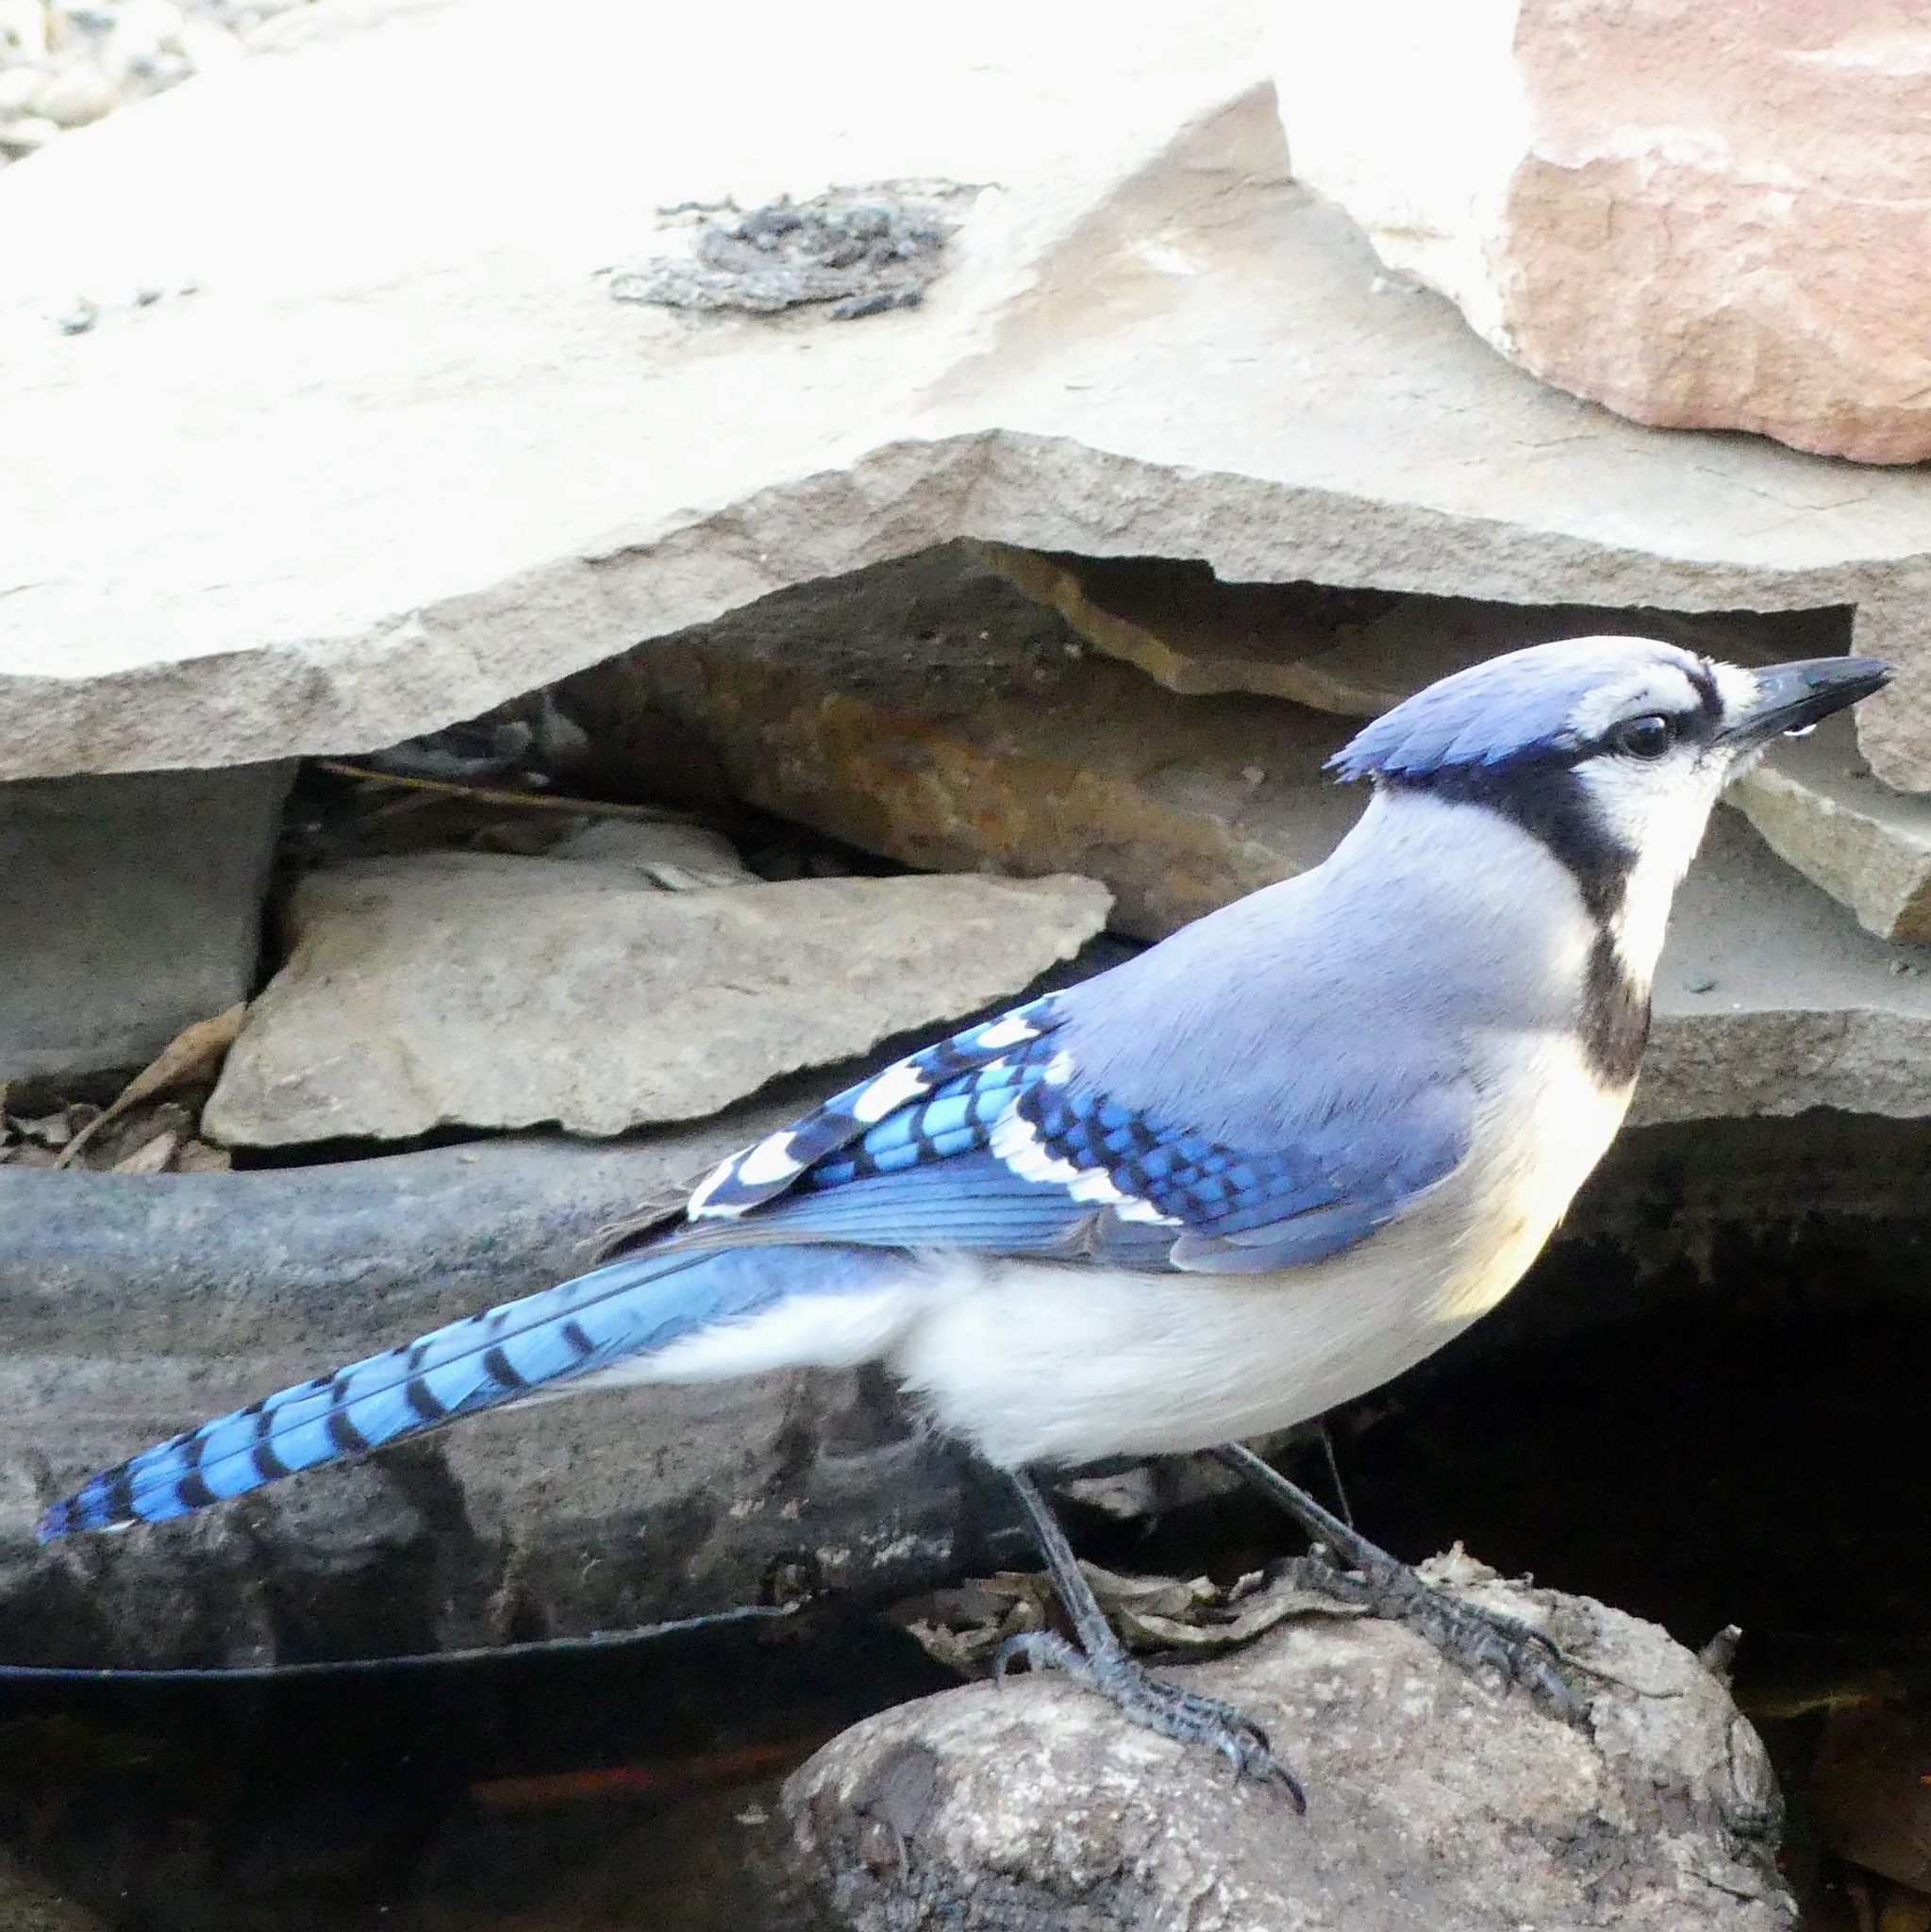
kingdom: Animalia
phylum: Chordata
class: Aves
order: Passeriformes
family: Corvidae
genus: Cyanocitta
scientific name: Cyanocitta cristata
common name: Blue jay
